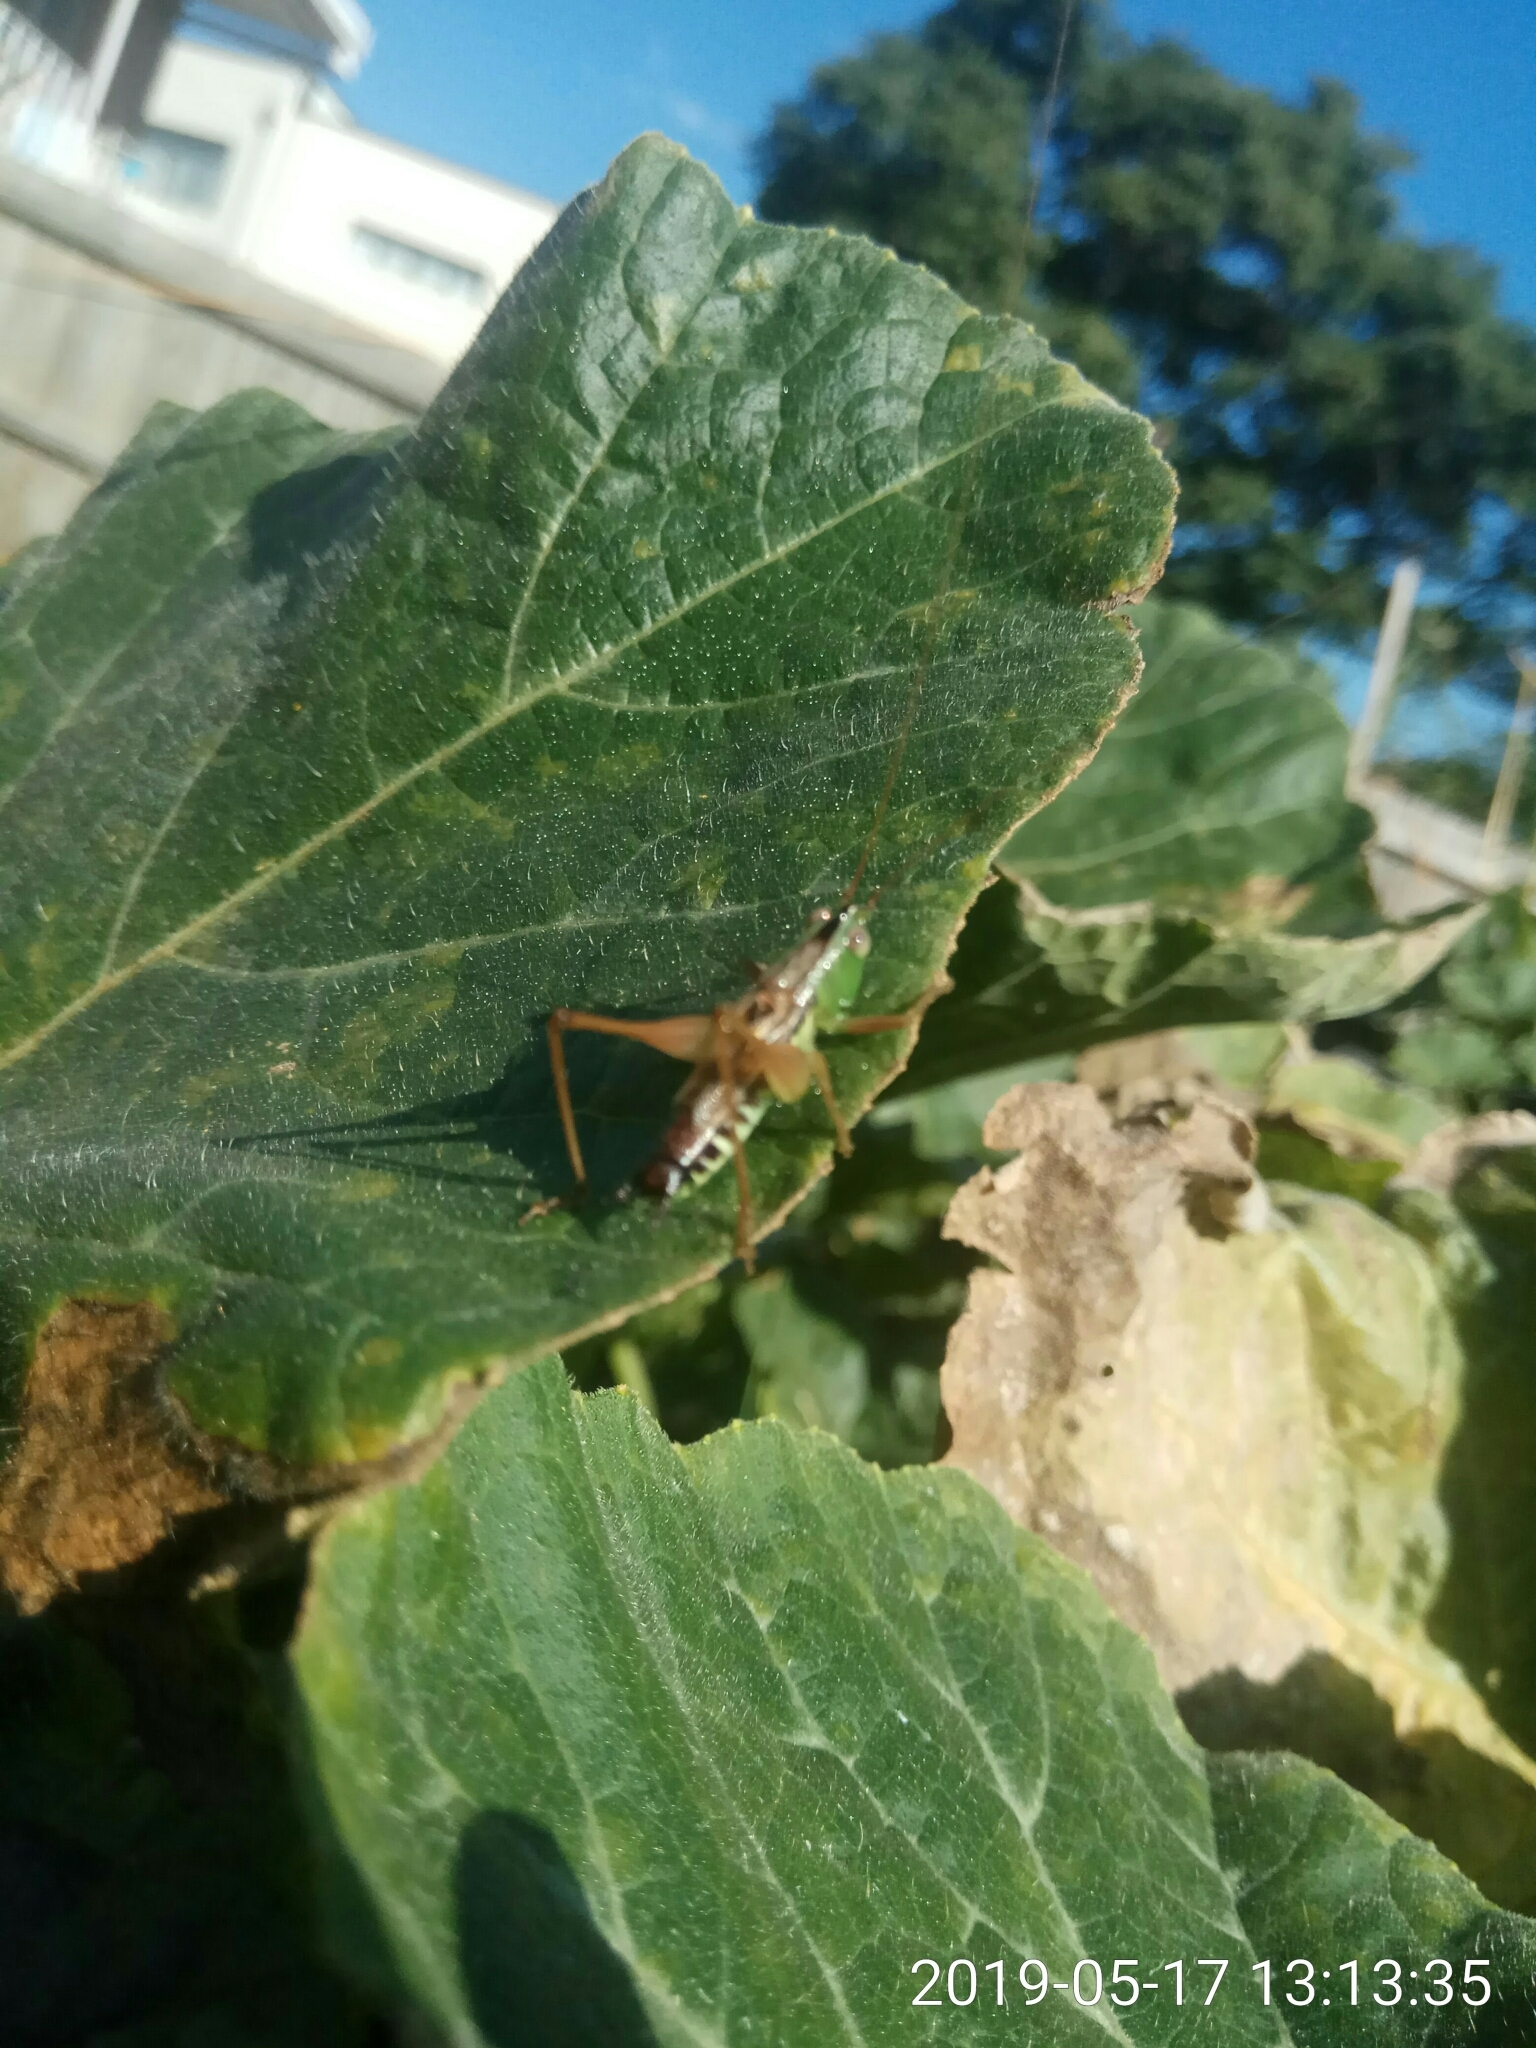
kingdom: Animalia
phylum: Arthropoda
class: Insecta
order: Orthoptera
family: Tettigoniidae
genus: Conocephalus
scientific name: Conocephalus semivittatus
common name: Blackish meadow katydid
